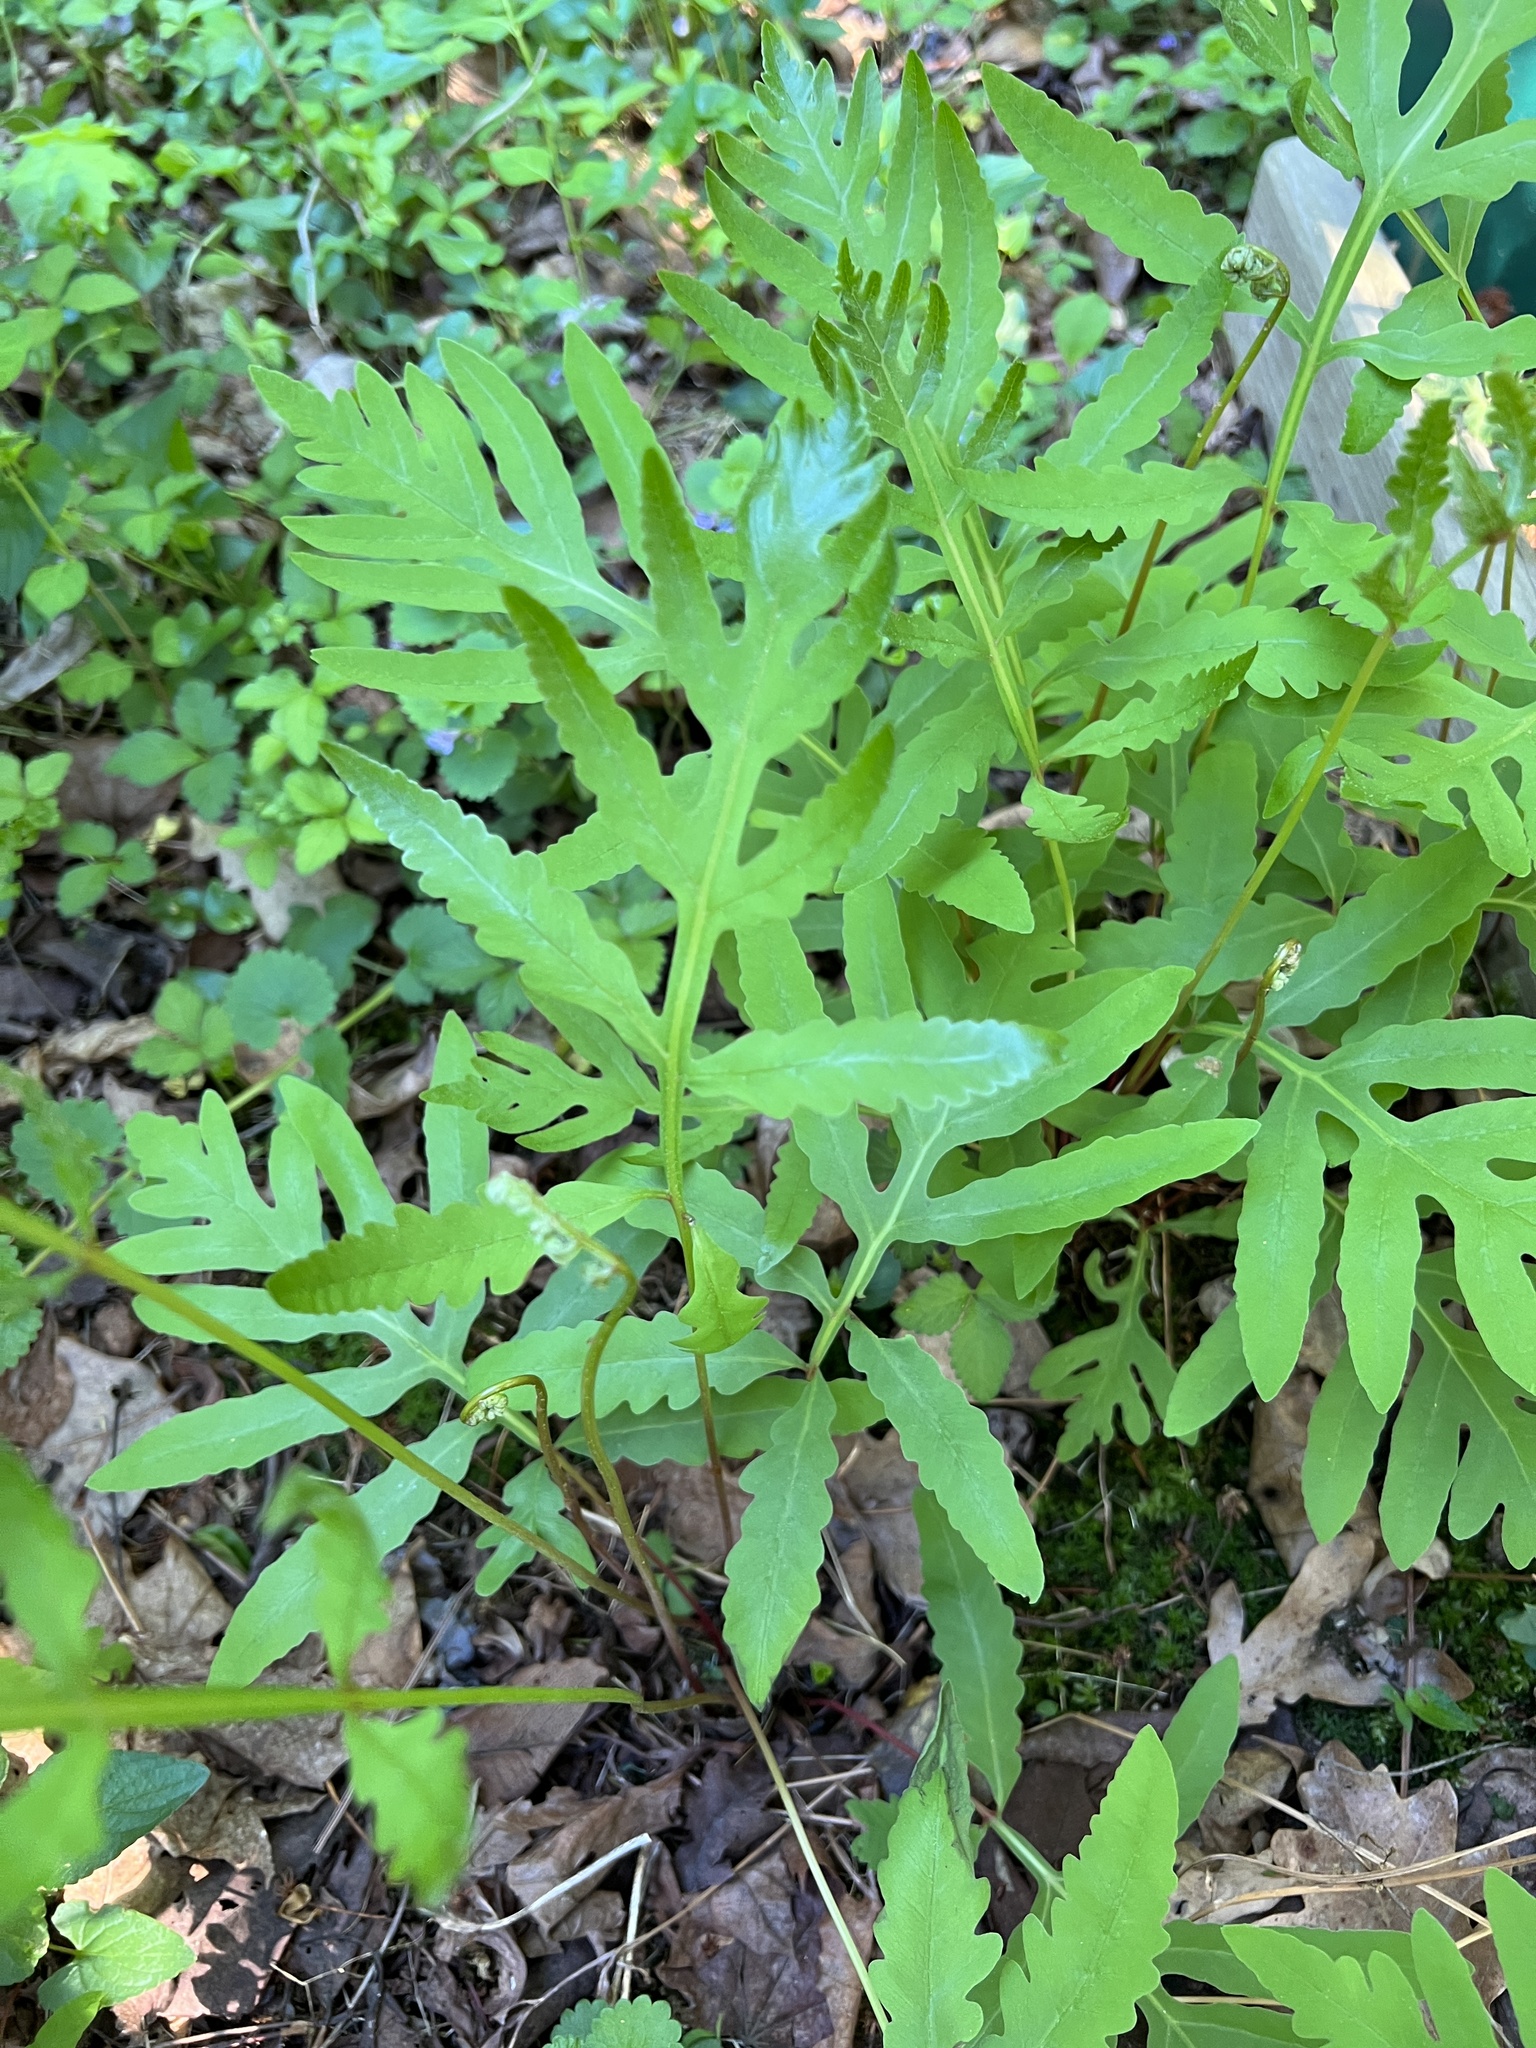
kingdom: Plantae
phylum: Tracheophyta
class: Polypodiopsida
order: Polypodiales
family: Onocleaceae
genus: Onoclea
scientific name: Onoclea sensibilis
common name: Sensitive fern
